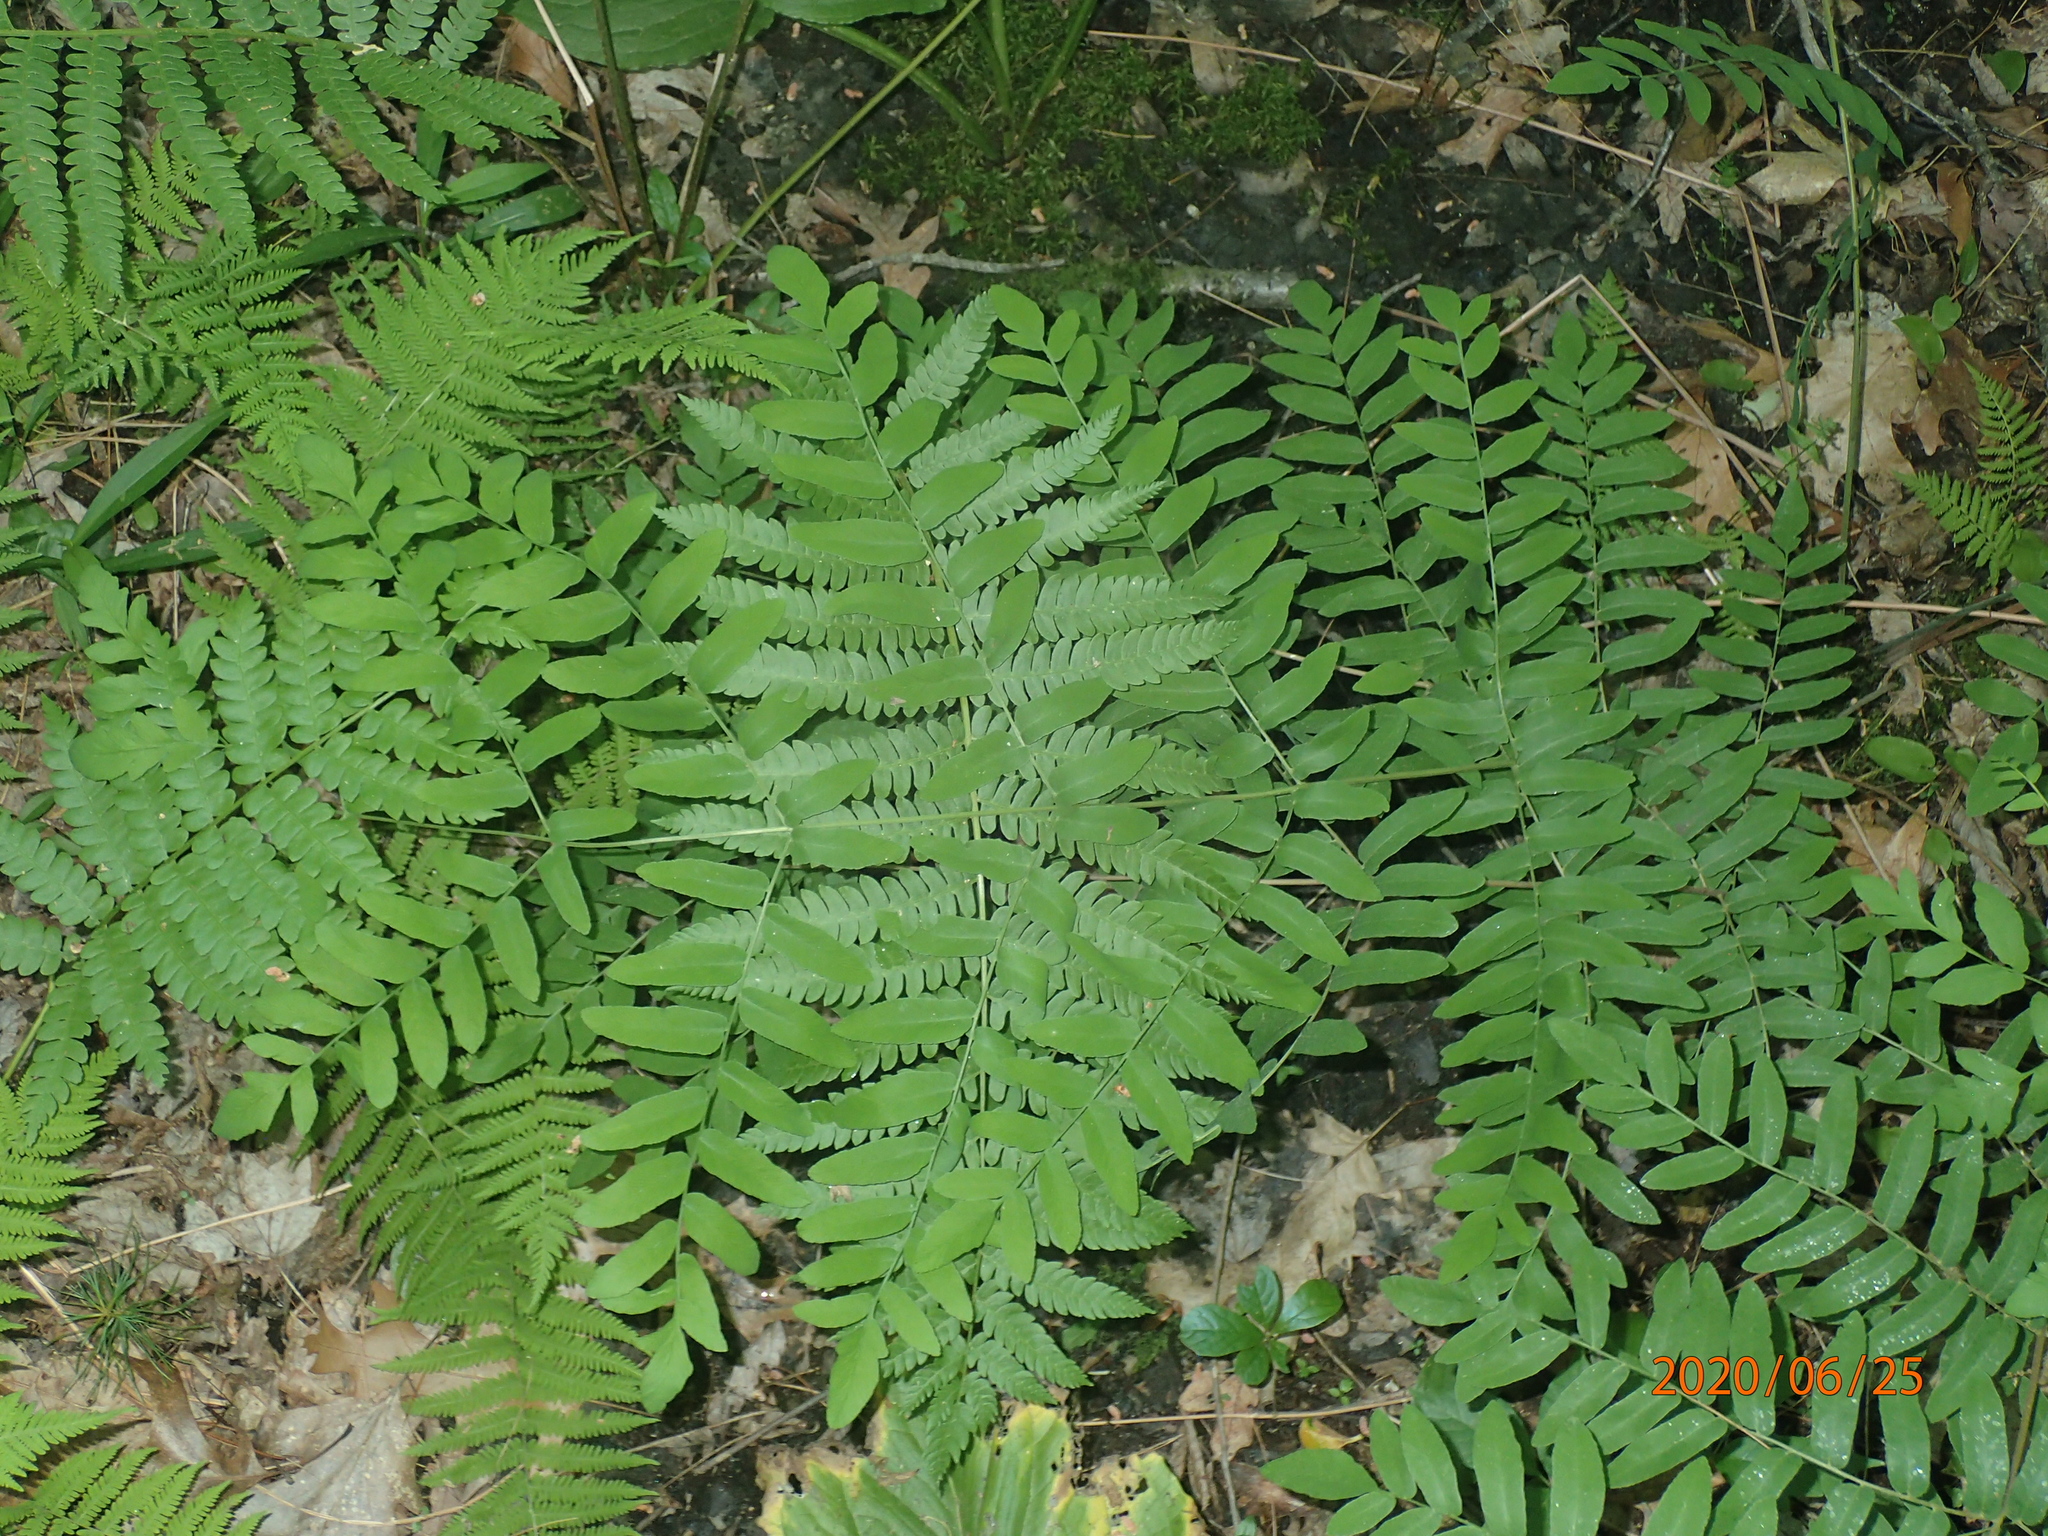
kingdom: Plantae
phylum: Tracheophyta
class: Polypodiopsida
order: Osmundales
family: Osmundaceae
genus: Osmunda
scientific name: Osmunda spectabilis
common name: American royal fern
